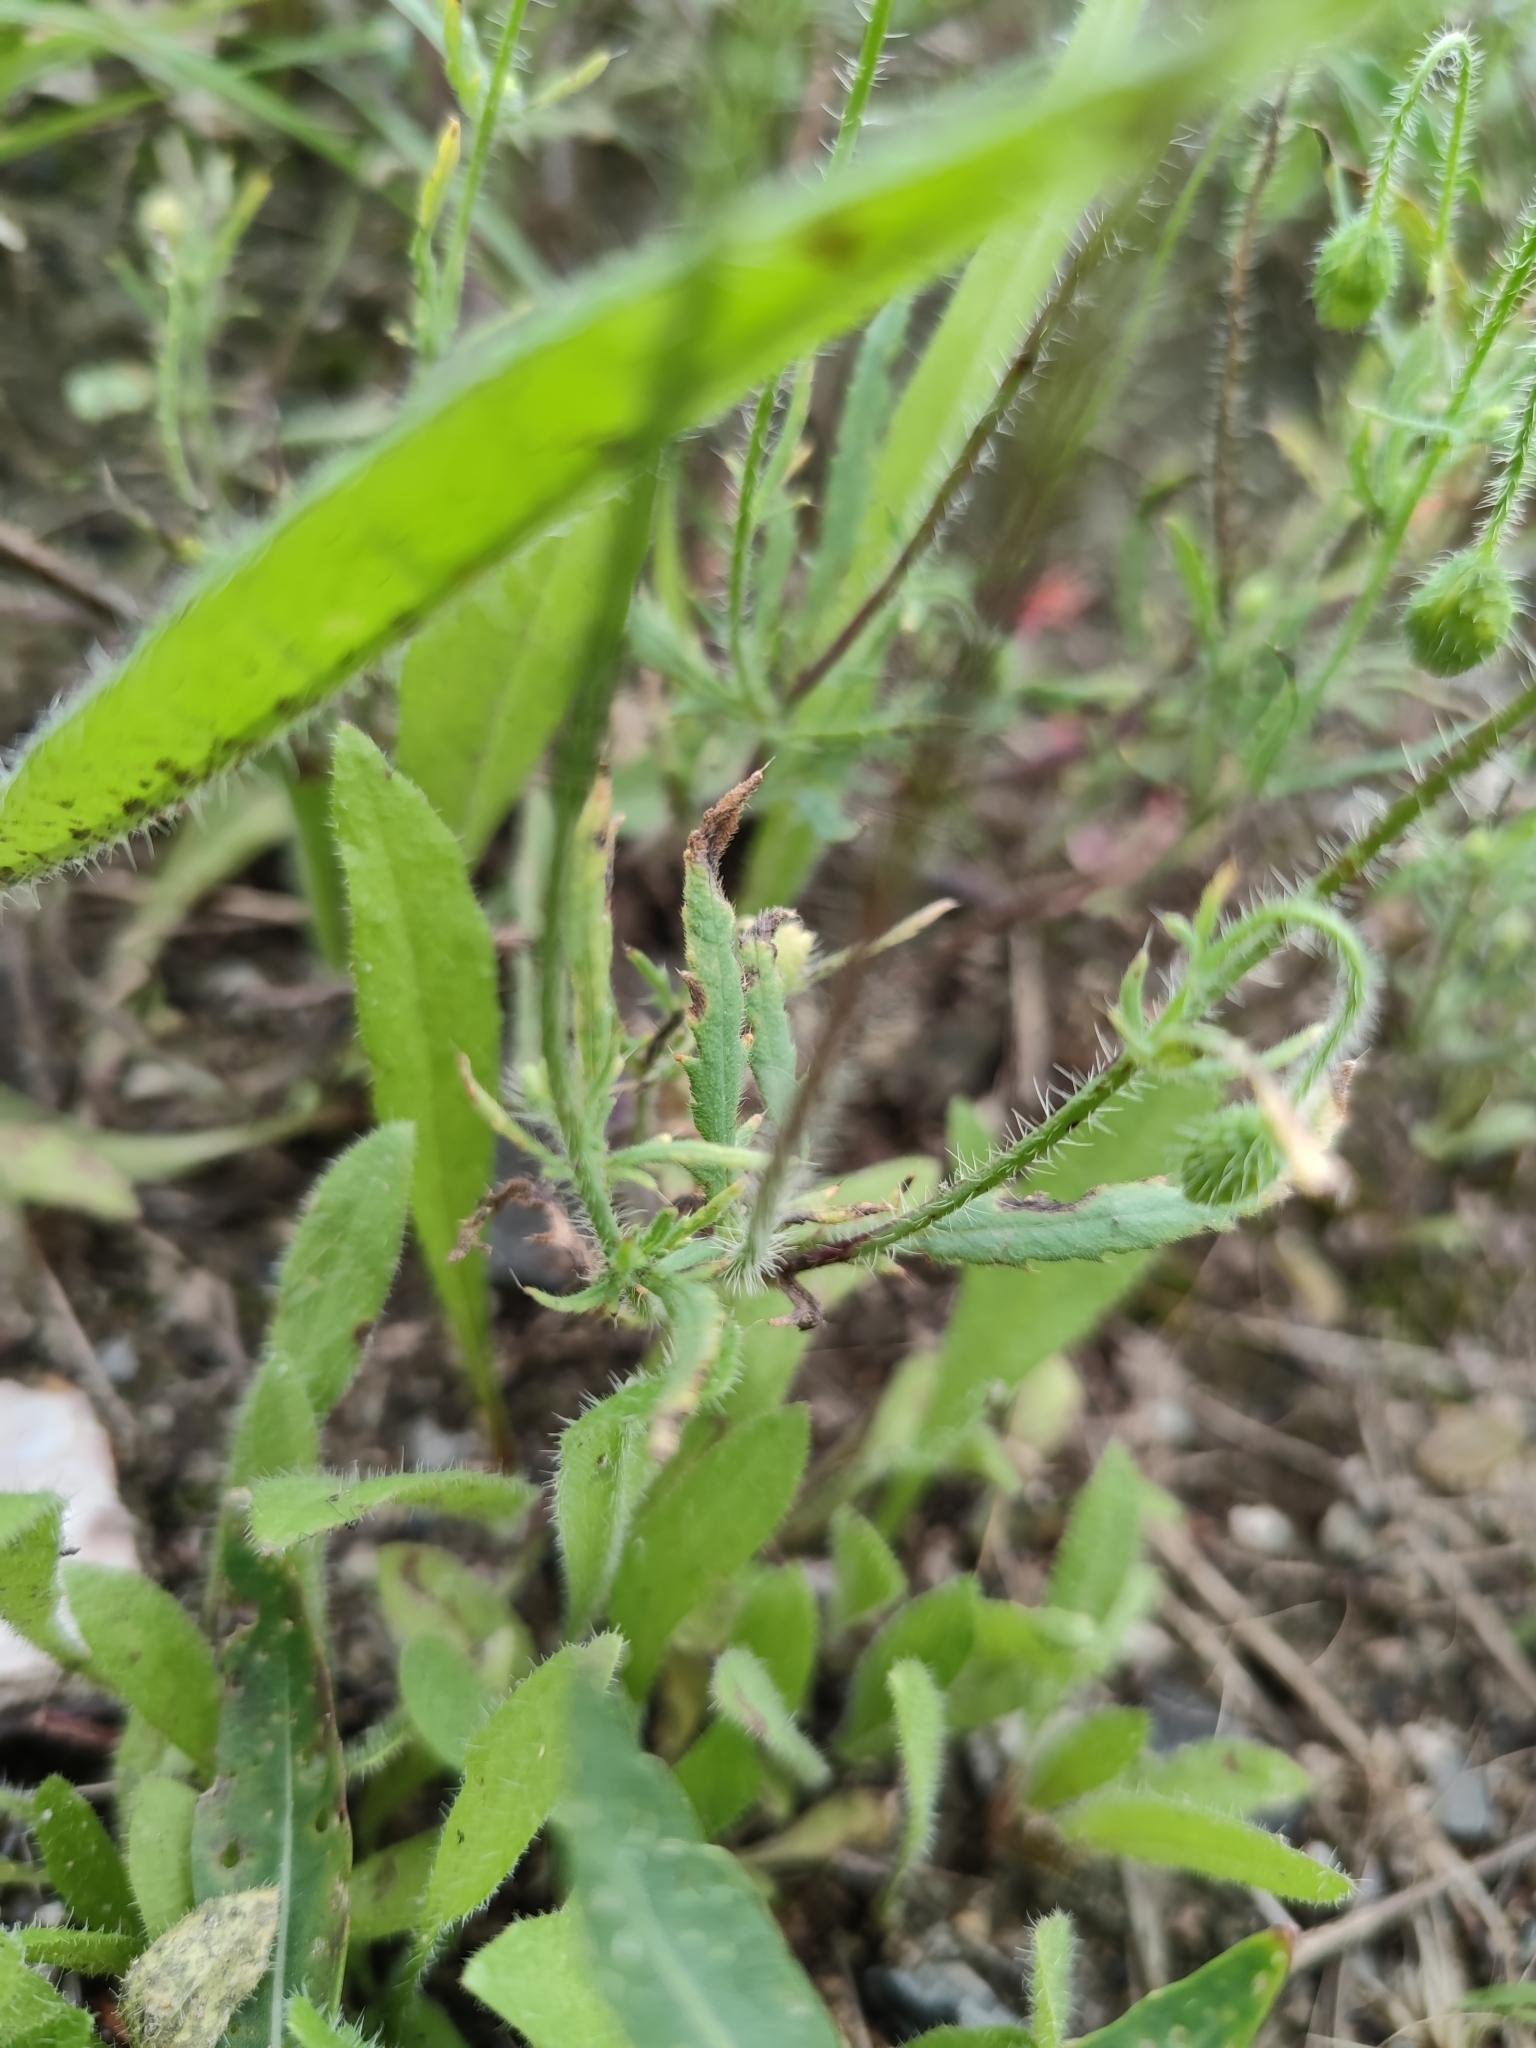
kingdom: Plantae
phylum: Tracheophyta
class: Magnoliopsida
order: Ranunculales
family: Papaveraceae
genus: Papaver
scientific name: Papaver rhoeas
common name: Corn poppy
